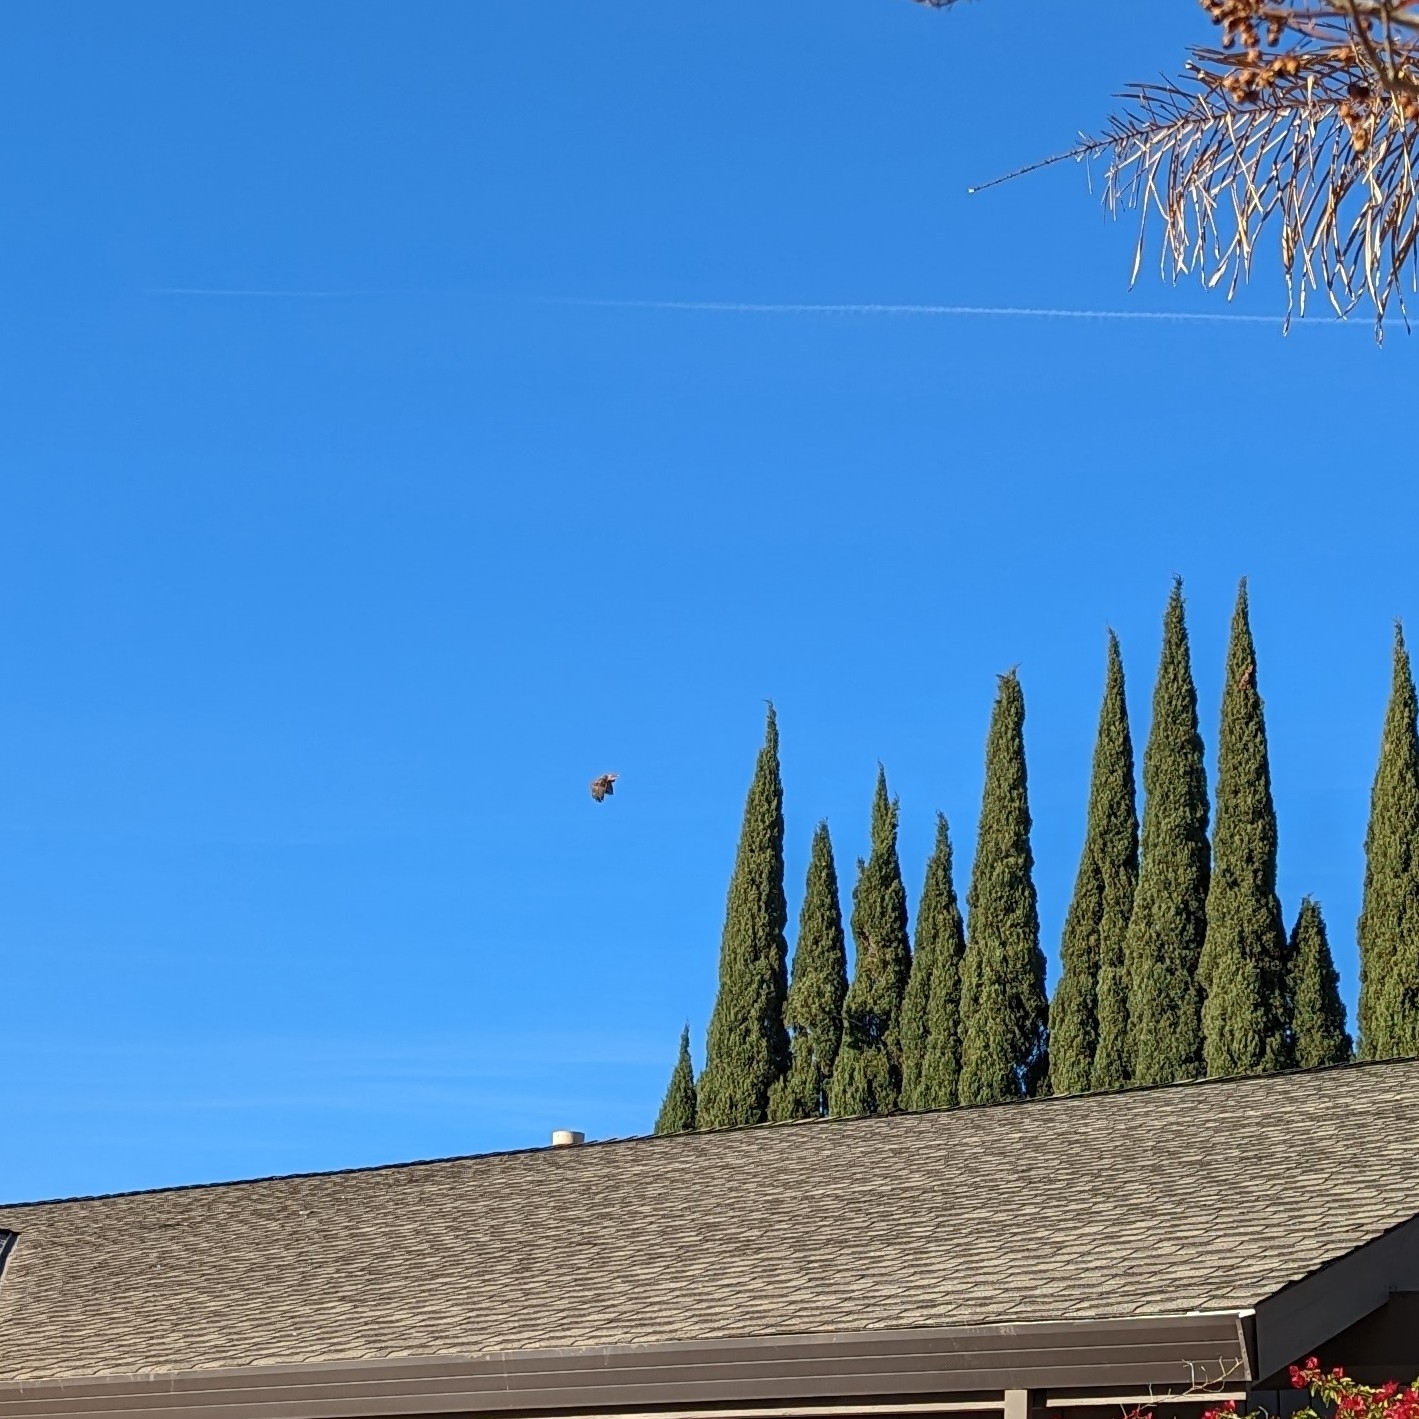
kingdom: Animalia
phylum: Chordata
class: Aves
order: Accipitriformes
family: Accipitridae
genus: Buteo
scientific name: Buteo jamaicensis
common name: Red-tailed hawk
